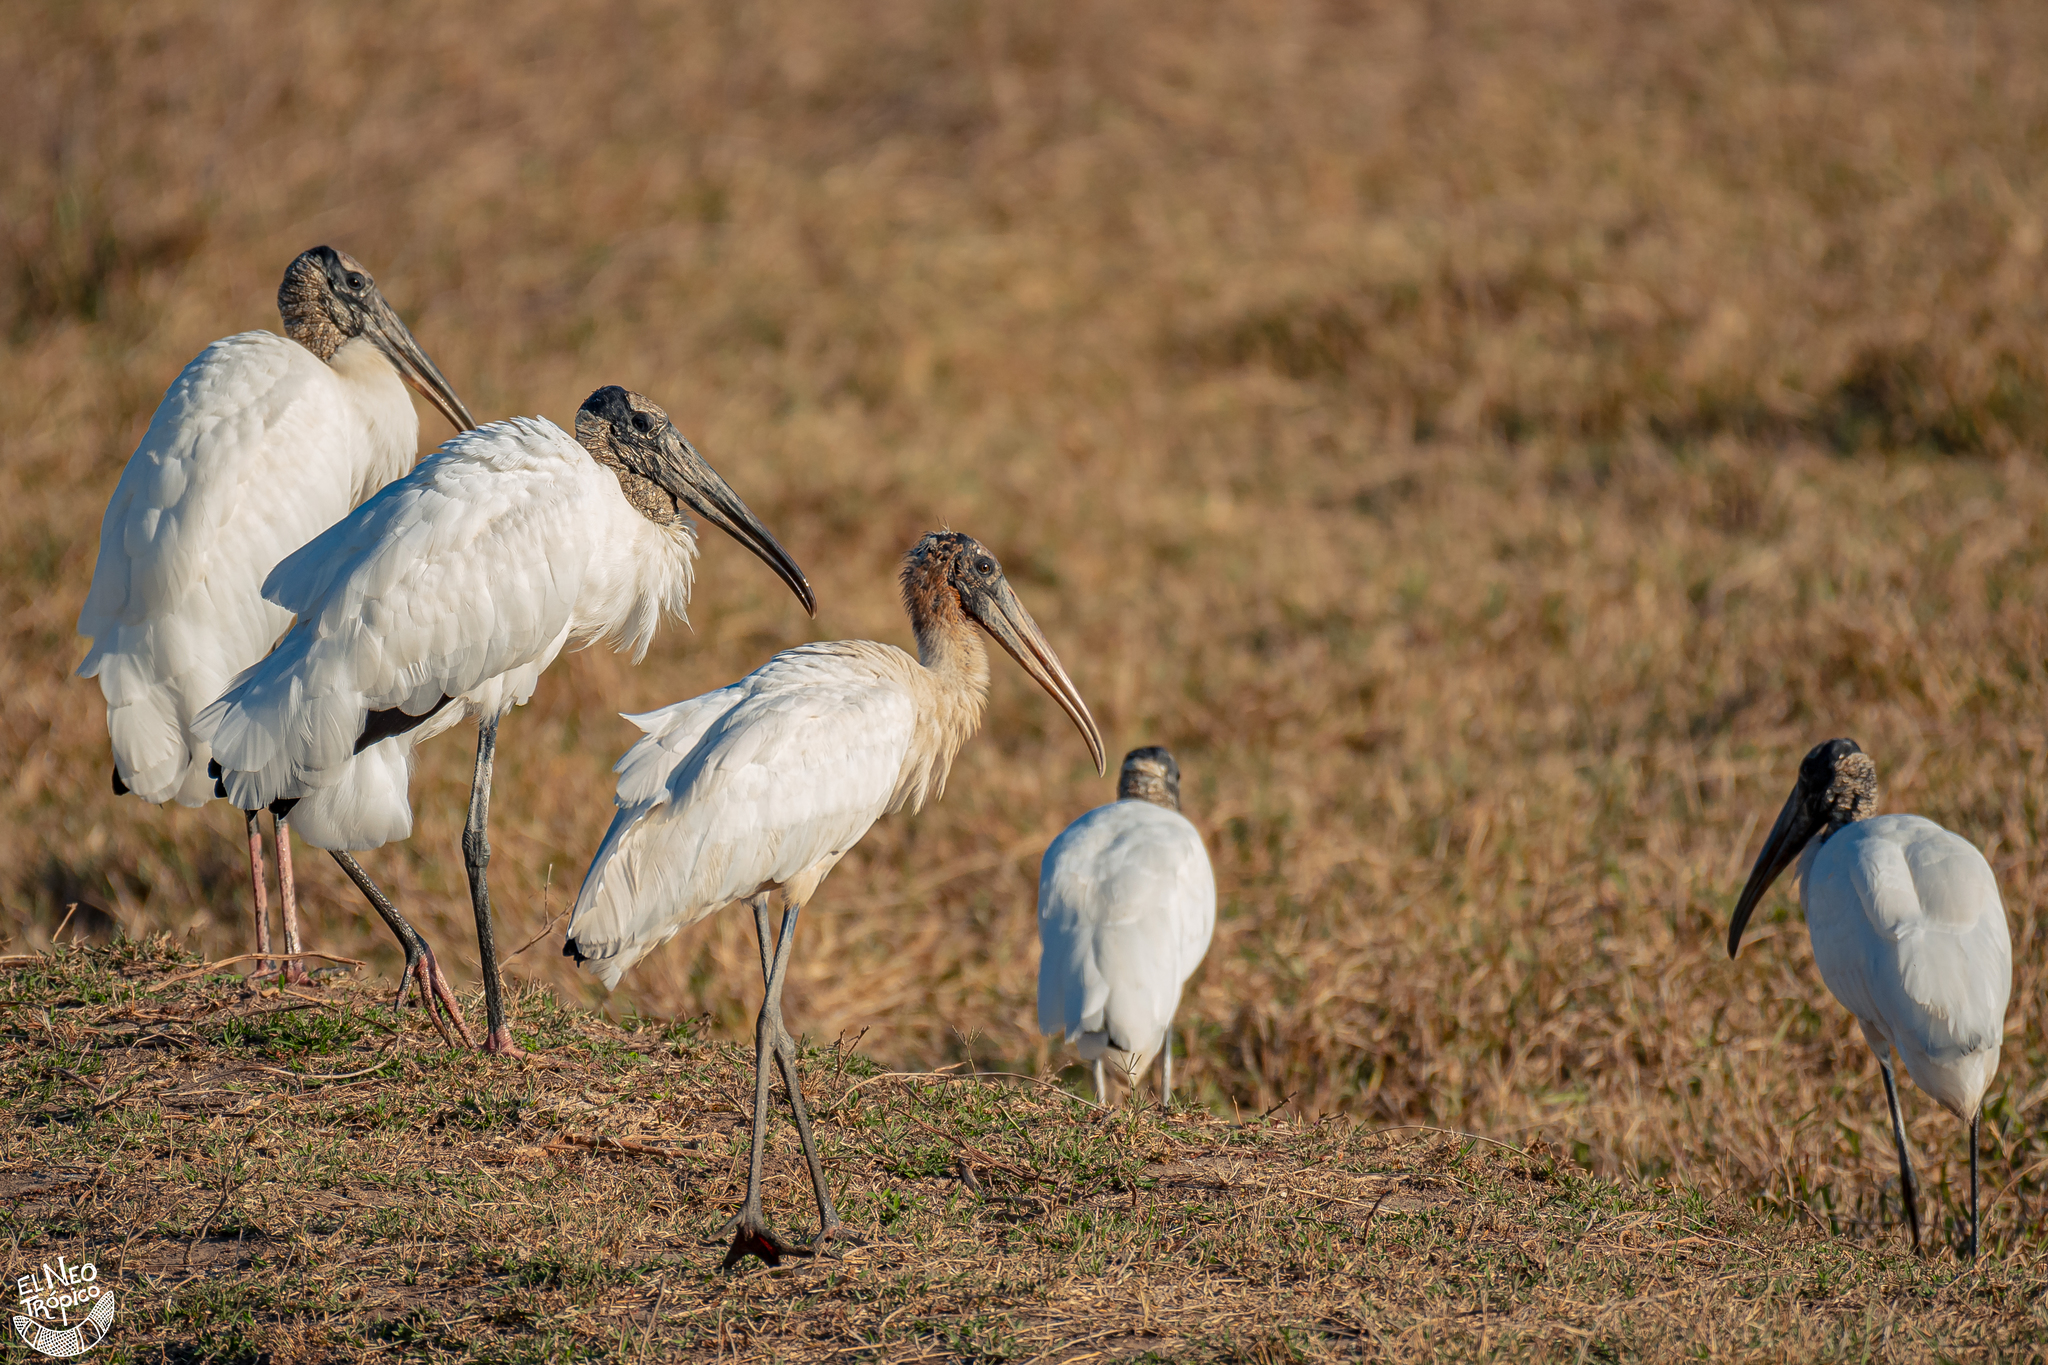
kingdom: Animalia
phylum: Chordata
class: Aves
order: Ciconiiformes
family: Ciconiidae
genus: Mycteria
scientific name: Mycteria americana
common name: Wood stork
